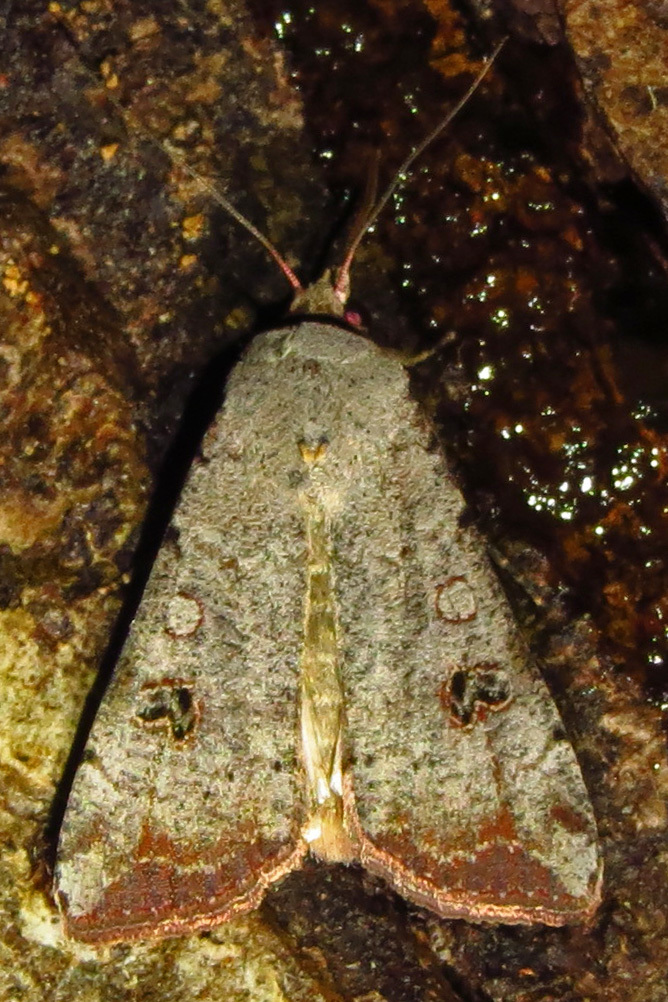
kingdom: Animalia
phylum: Arthropoda
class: Insecta
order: Lepidoptera
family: Noctuidae
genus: Anicla
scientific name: Anicla infecta
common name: Green cutworm
